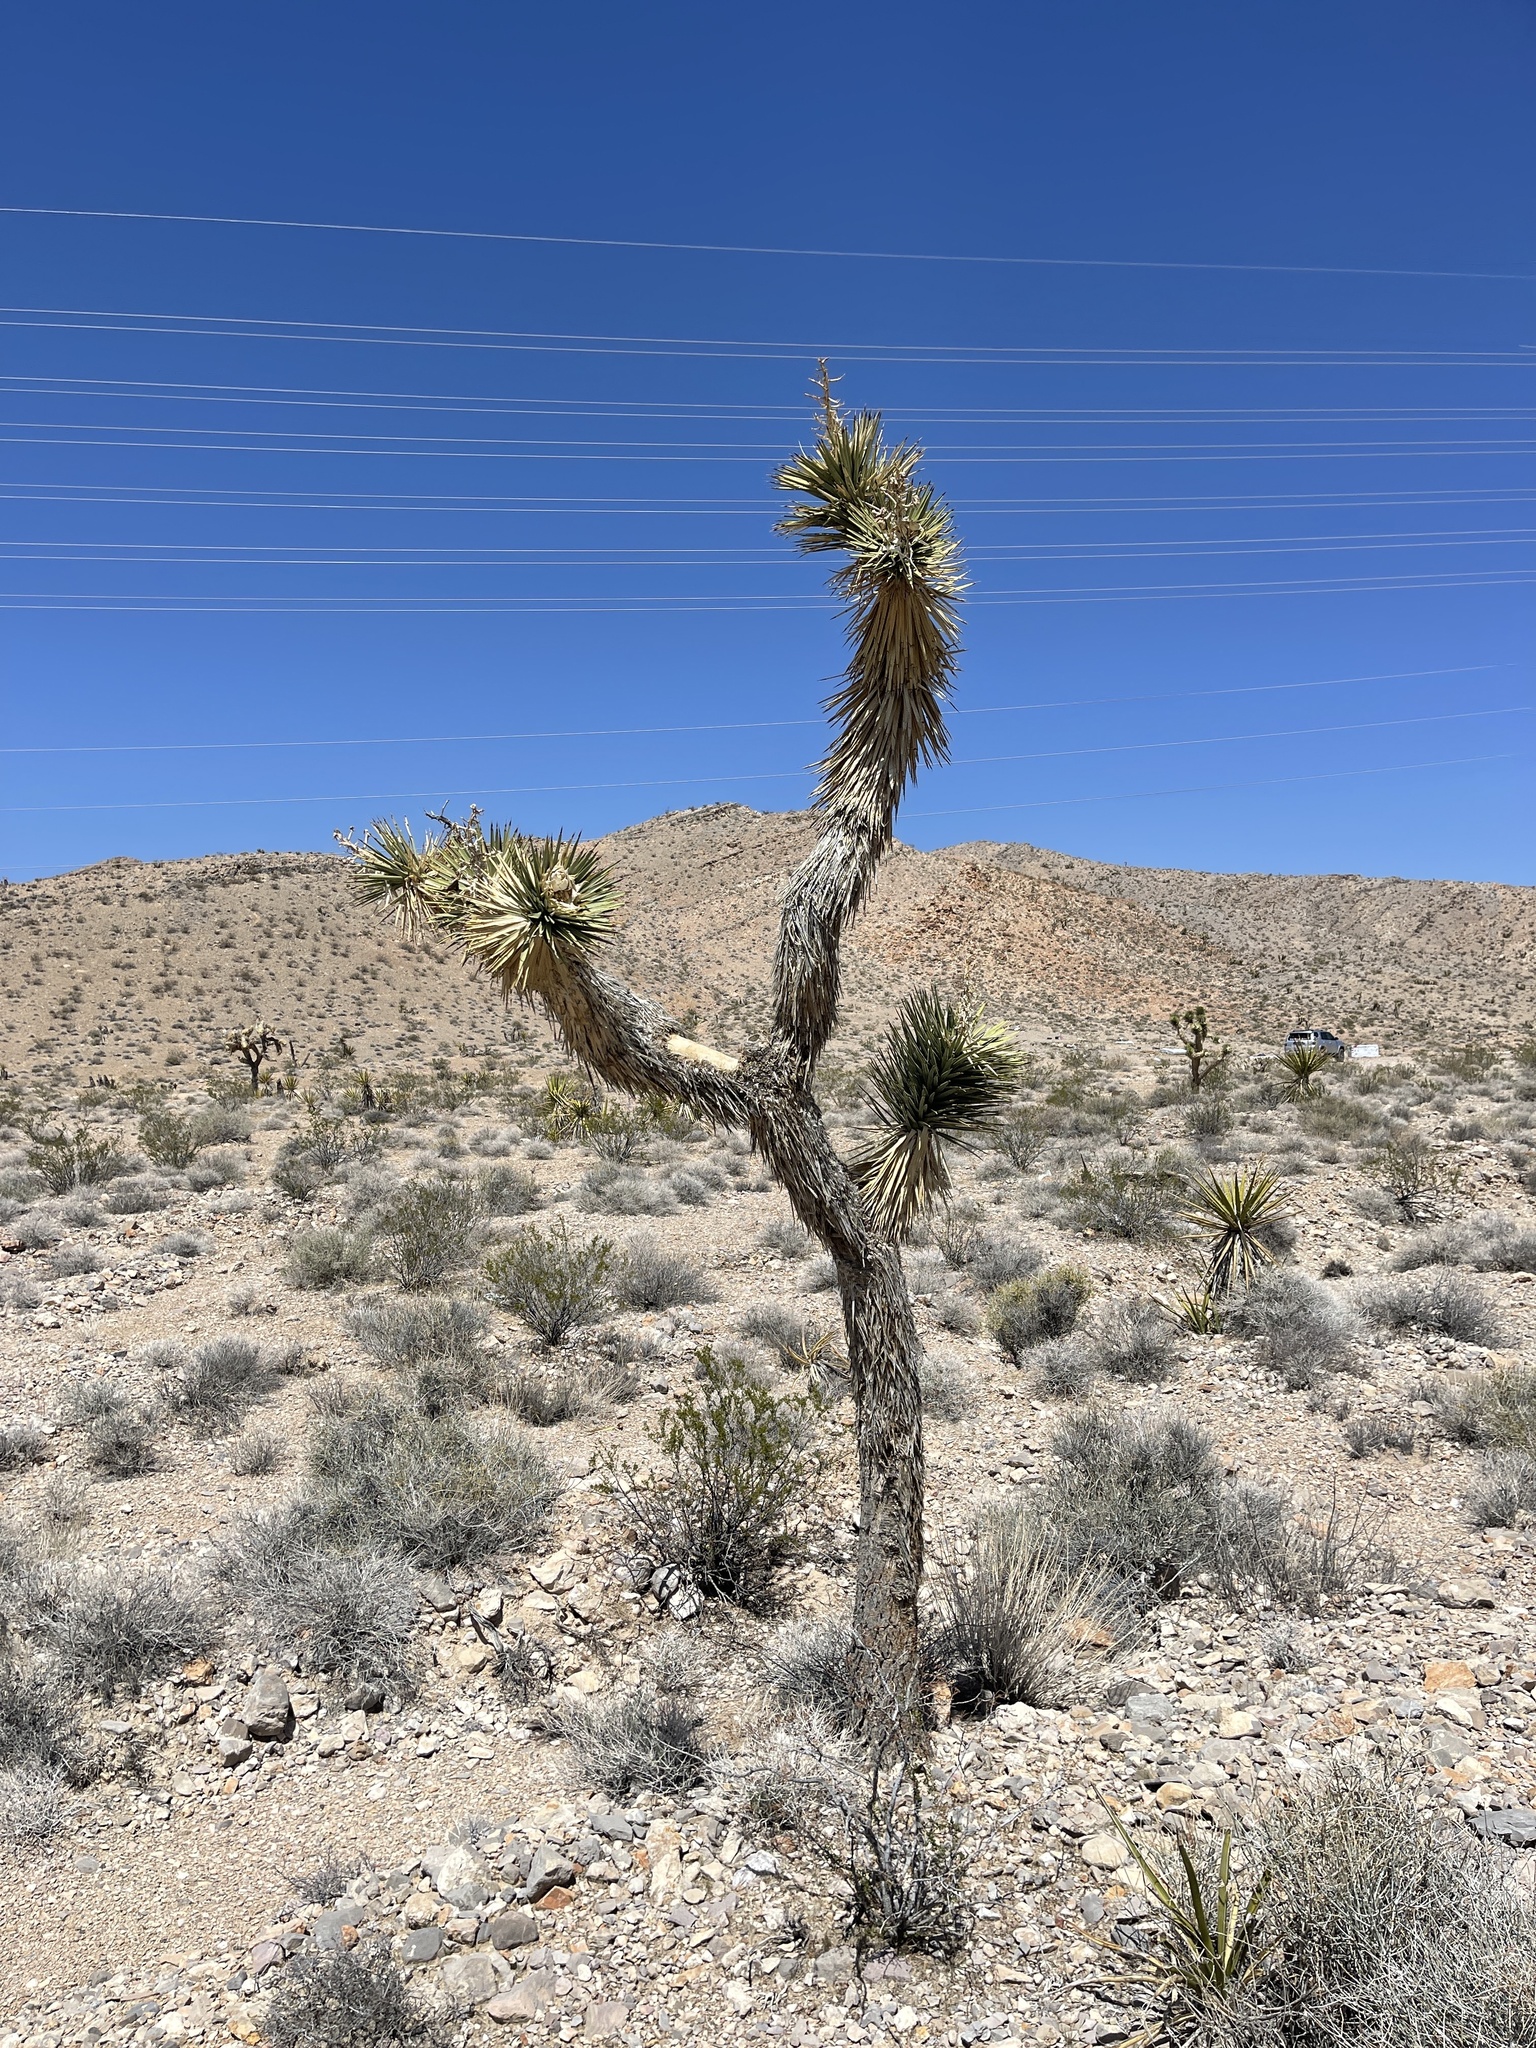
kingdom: Plantae
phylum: Tracheophyta
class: Liliopsida
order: Asparagales
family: Asparagaceae
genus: Yucca
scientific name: Yucca brevifolia
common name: Joshua tree
